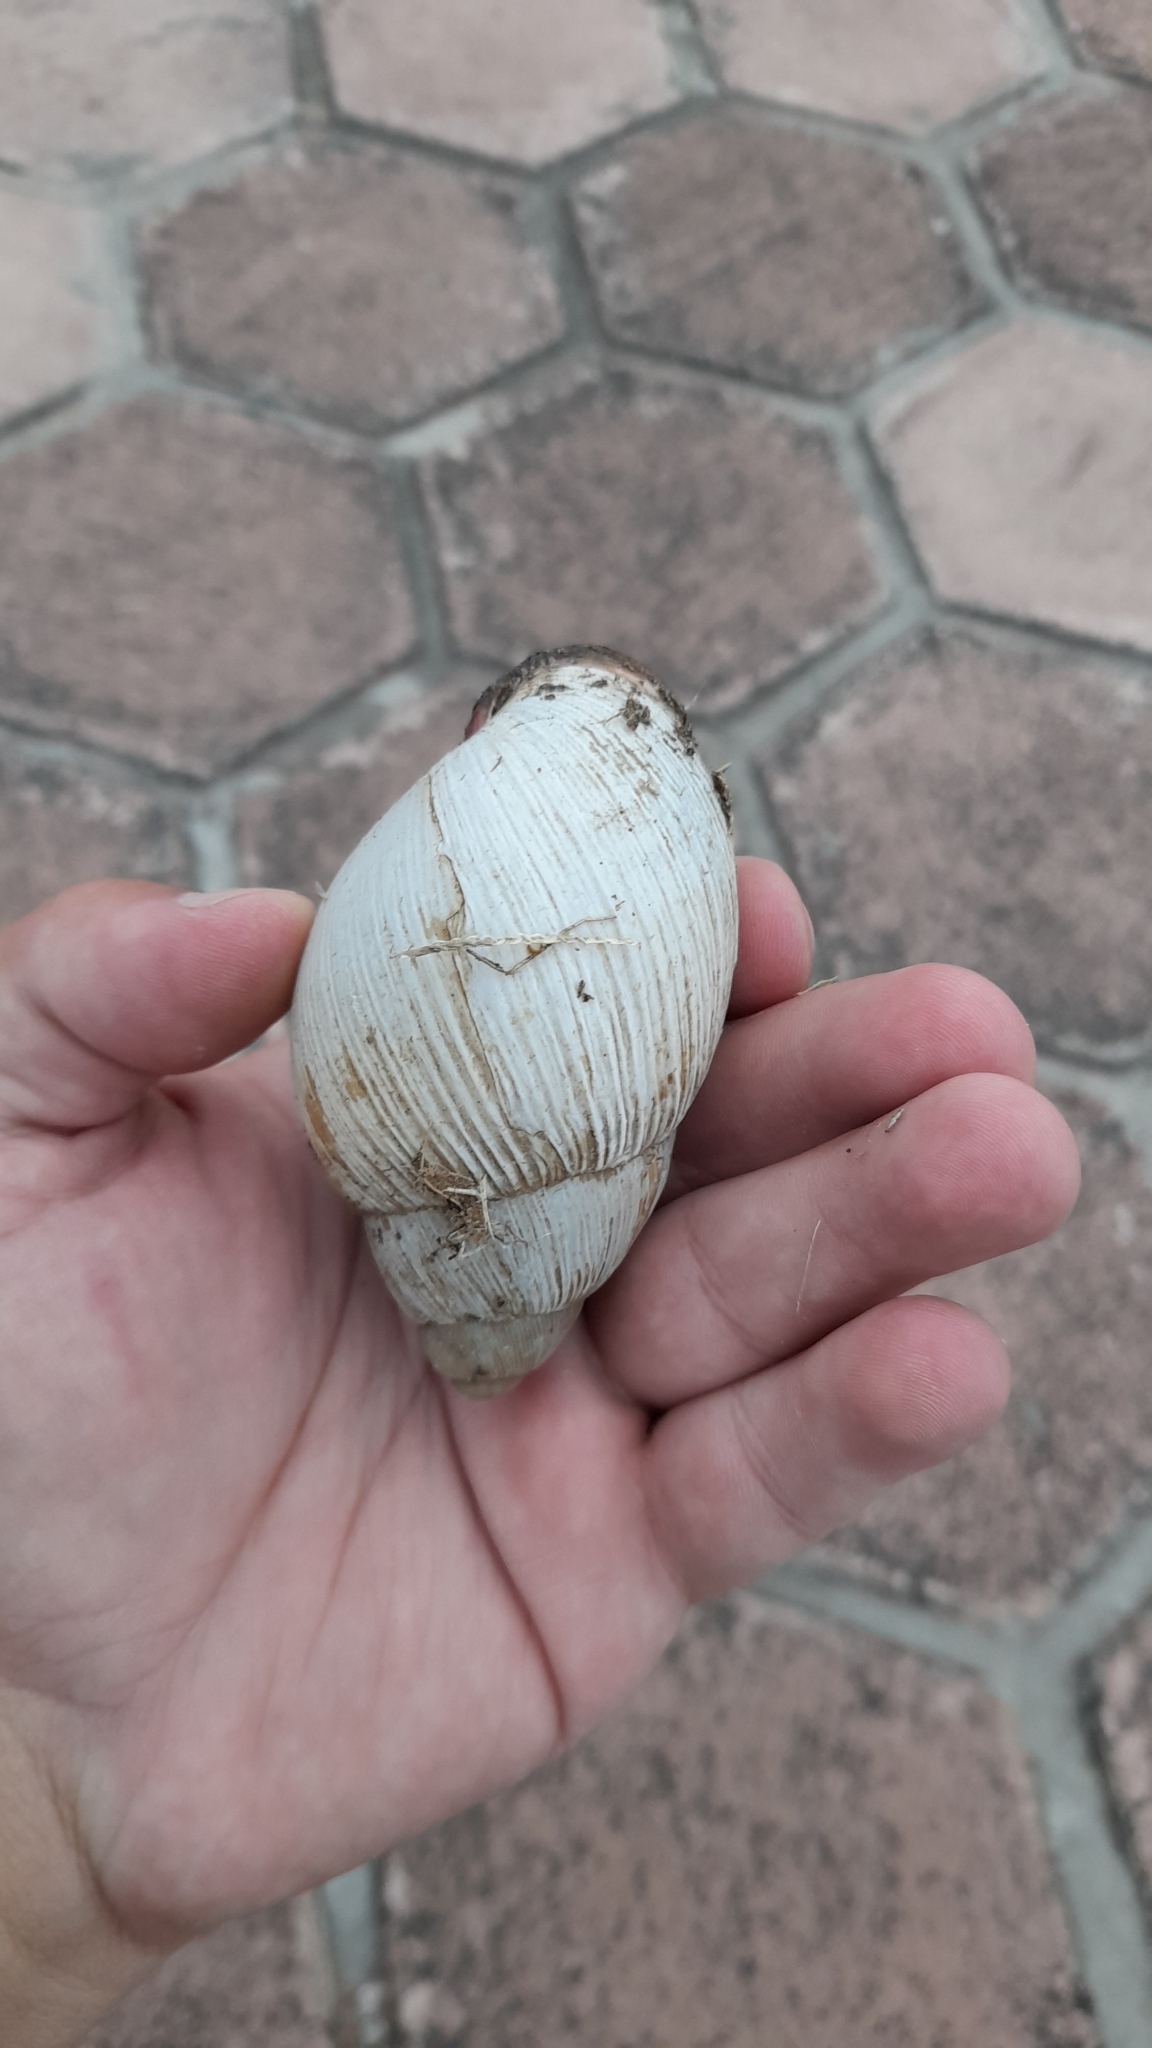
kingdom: Animalia
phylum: Mollusca
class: Gastropoda
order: Stylommatophora
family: Strophocheilidae
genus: Megalobulimus
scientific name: Megalobulimus
